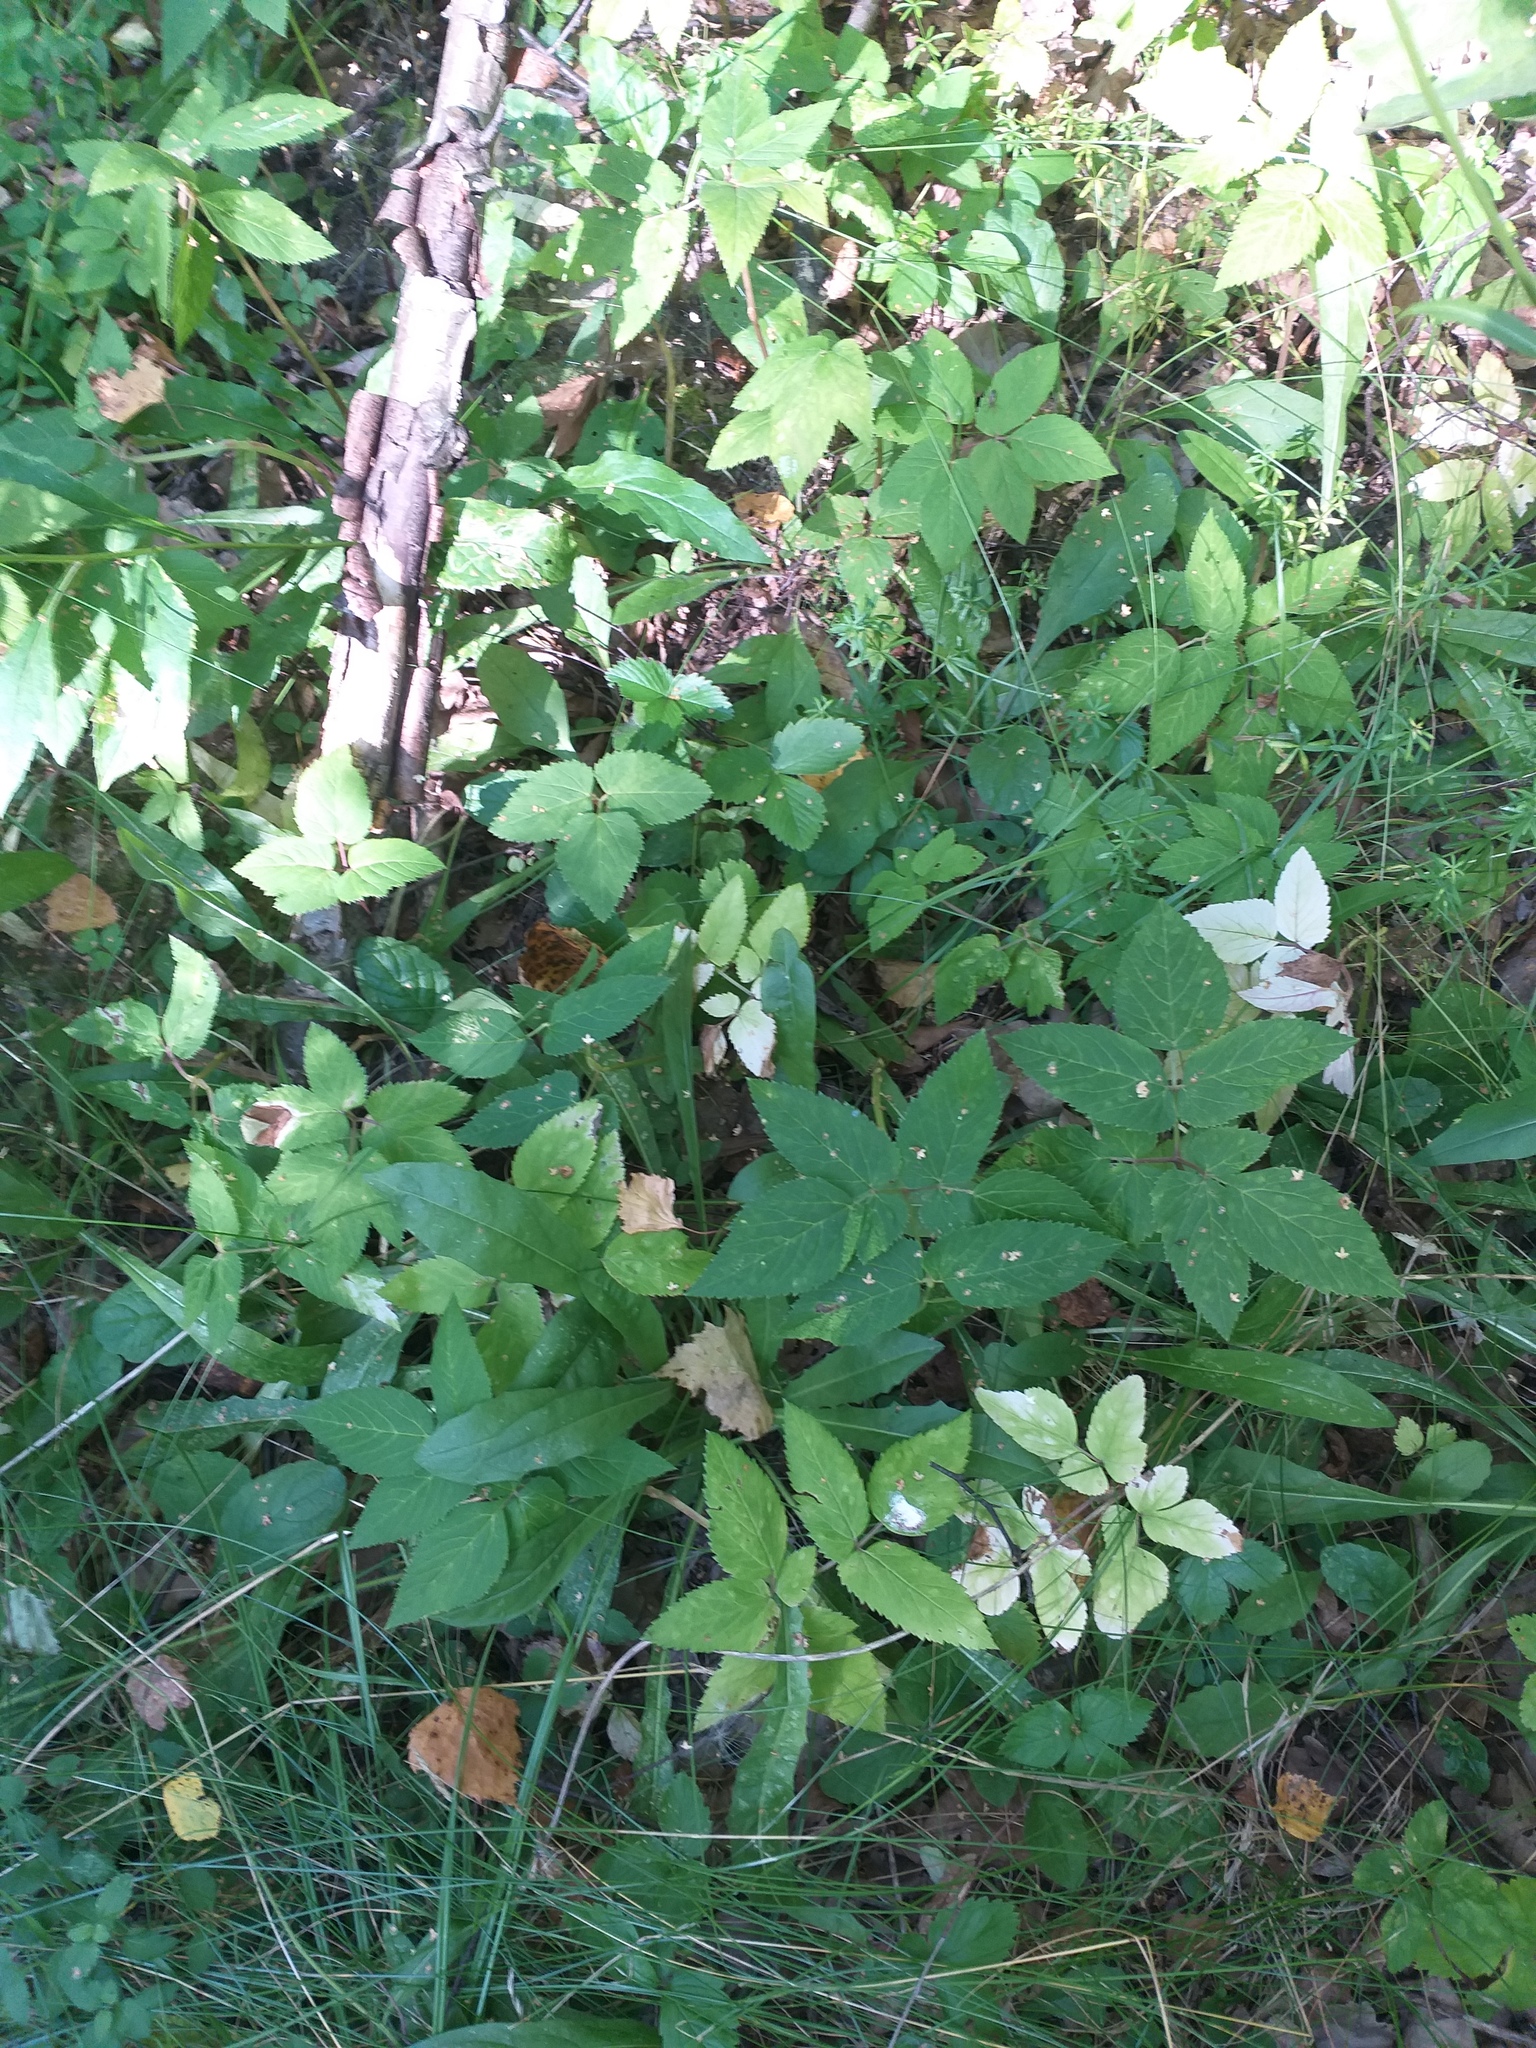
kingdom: Plantae
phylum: Tracheophyta
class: Magnoliopsida
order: Apiales
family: Apiaceae
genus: Aegopodium
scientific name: Aegopodium podagraria
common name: Ground-elder
